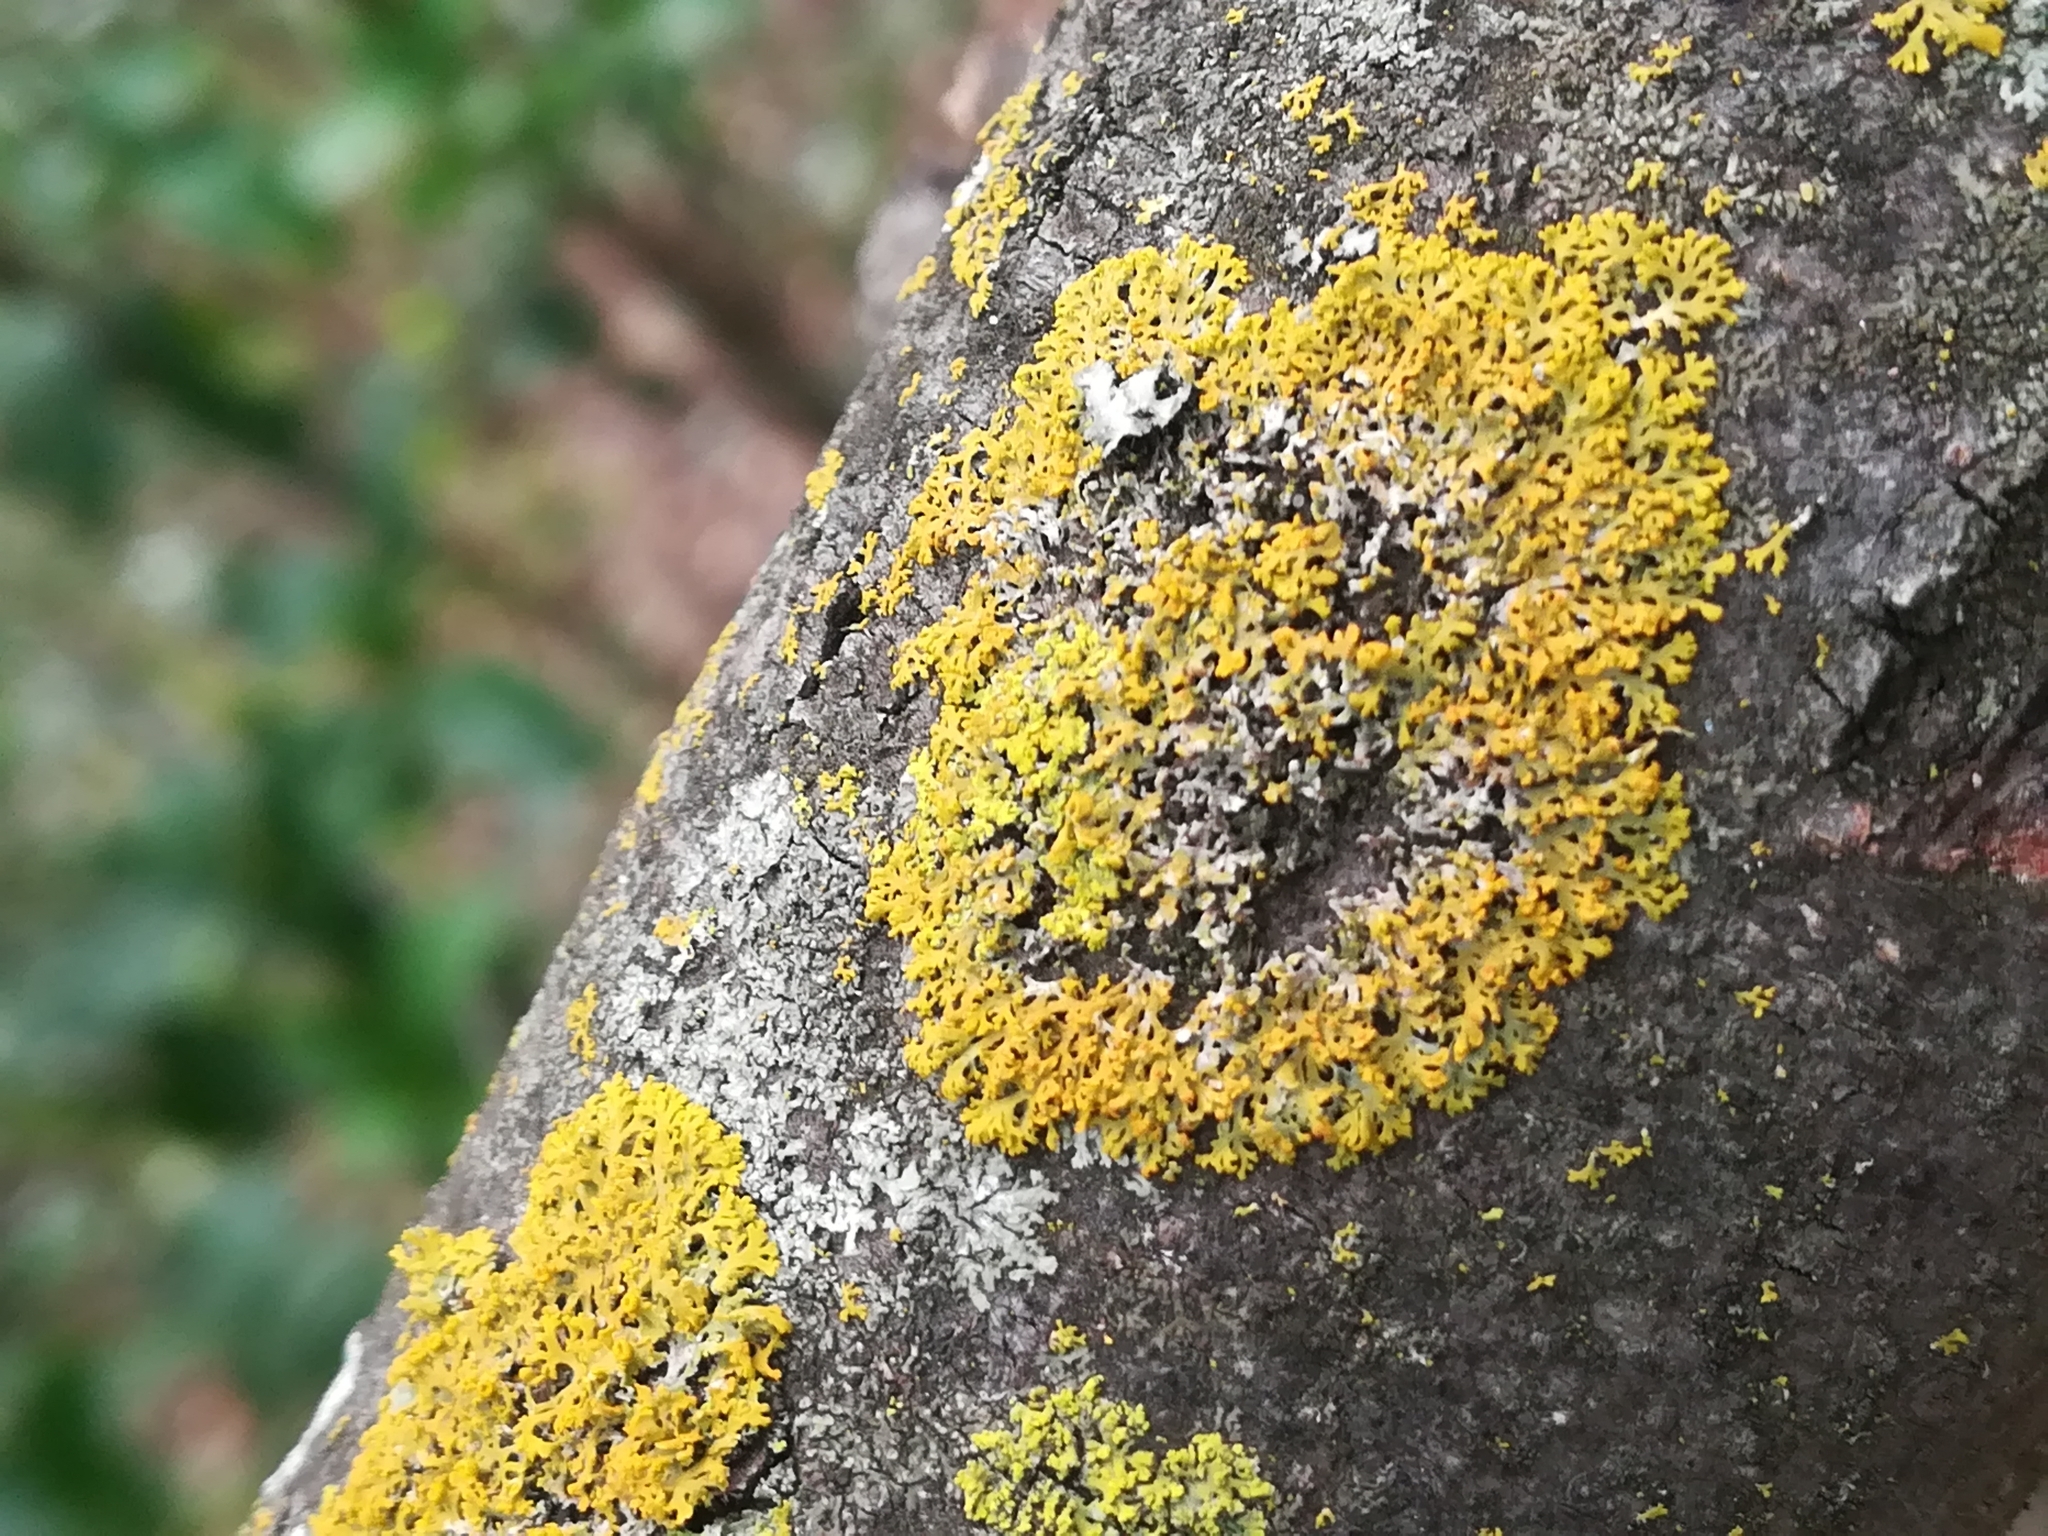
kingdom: Fungi
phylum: Ascomycota
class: Lecanoromycetes
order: Teloschistales
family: Teloschistaceae
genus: Gallowayella
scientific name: Gallowayella weberi
